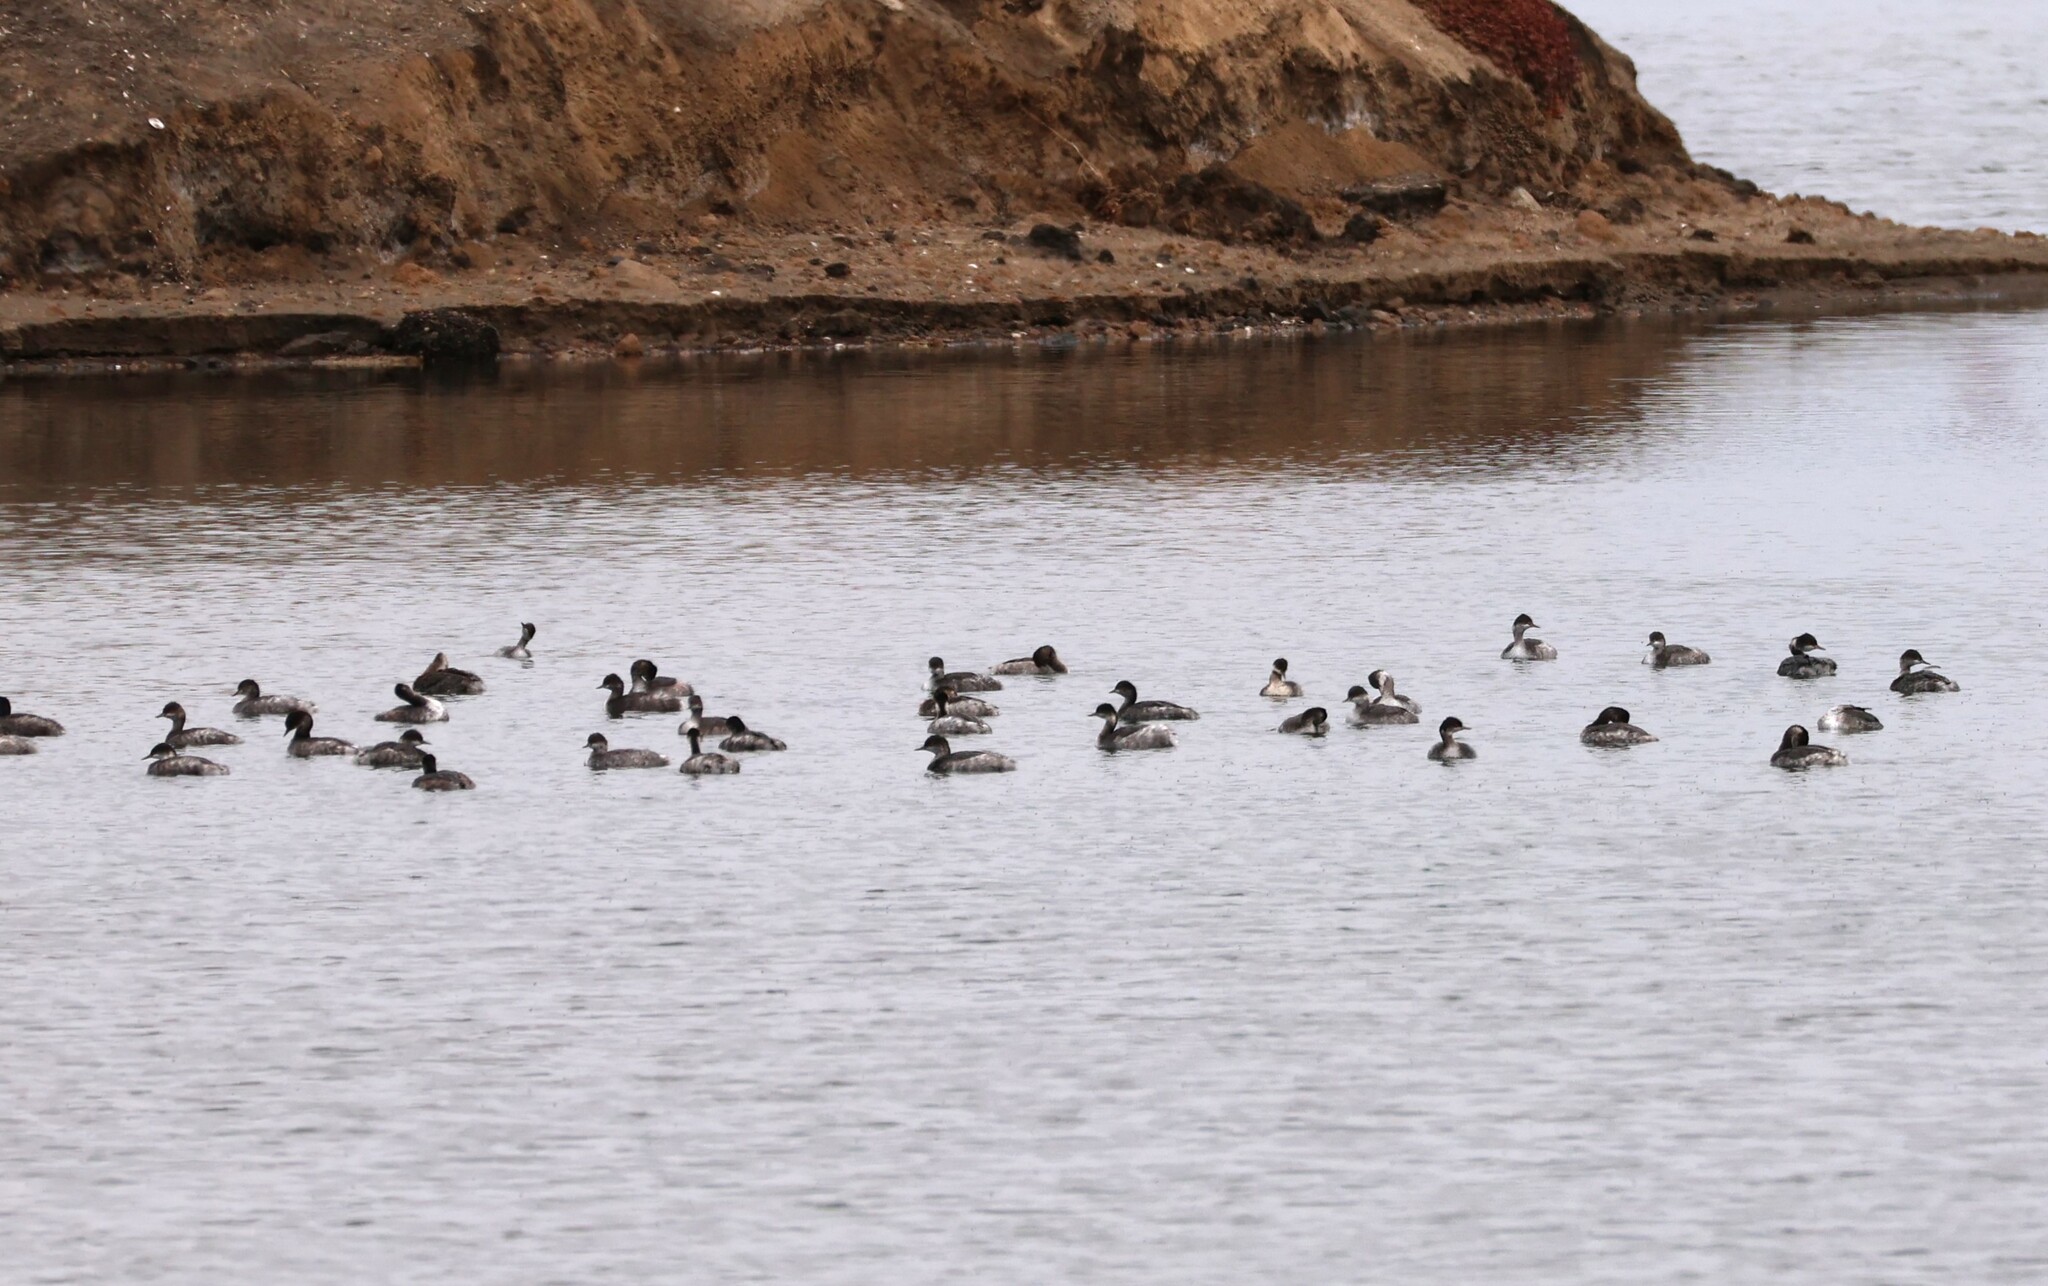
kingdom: Animalia
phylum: Chordata
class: Aves
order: Podicipediformes
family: Podicipedidae
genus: Podiceps
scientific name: Podiceps nigricollis
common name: Black-necked grebe
